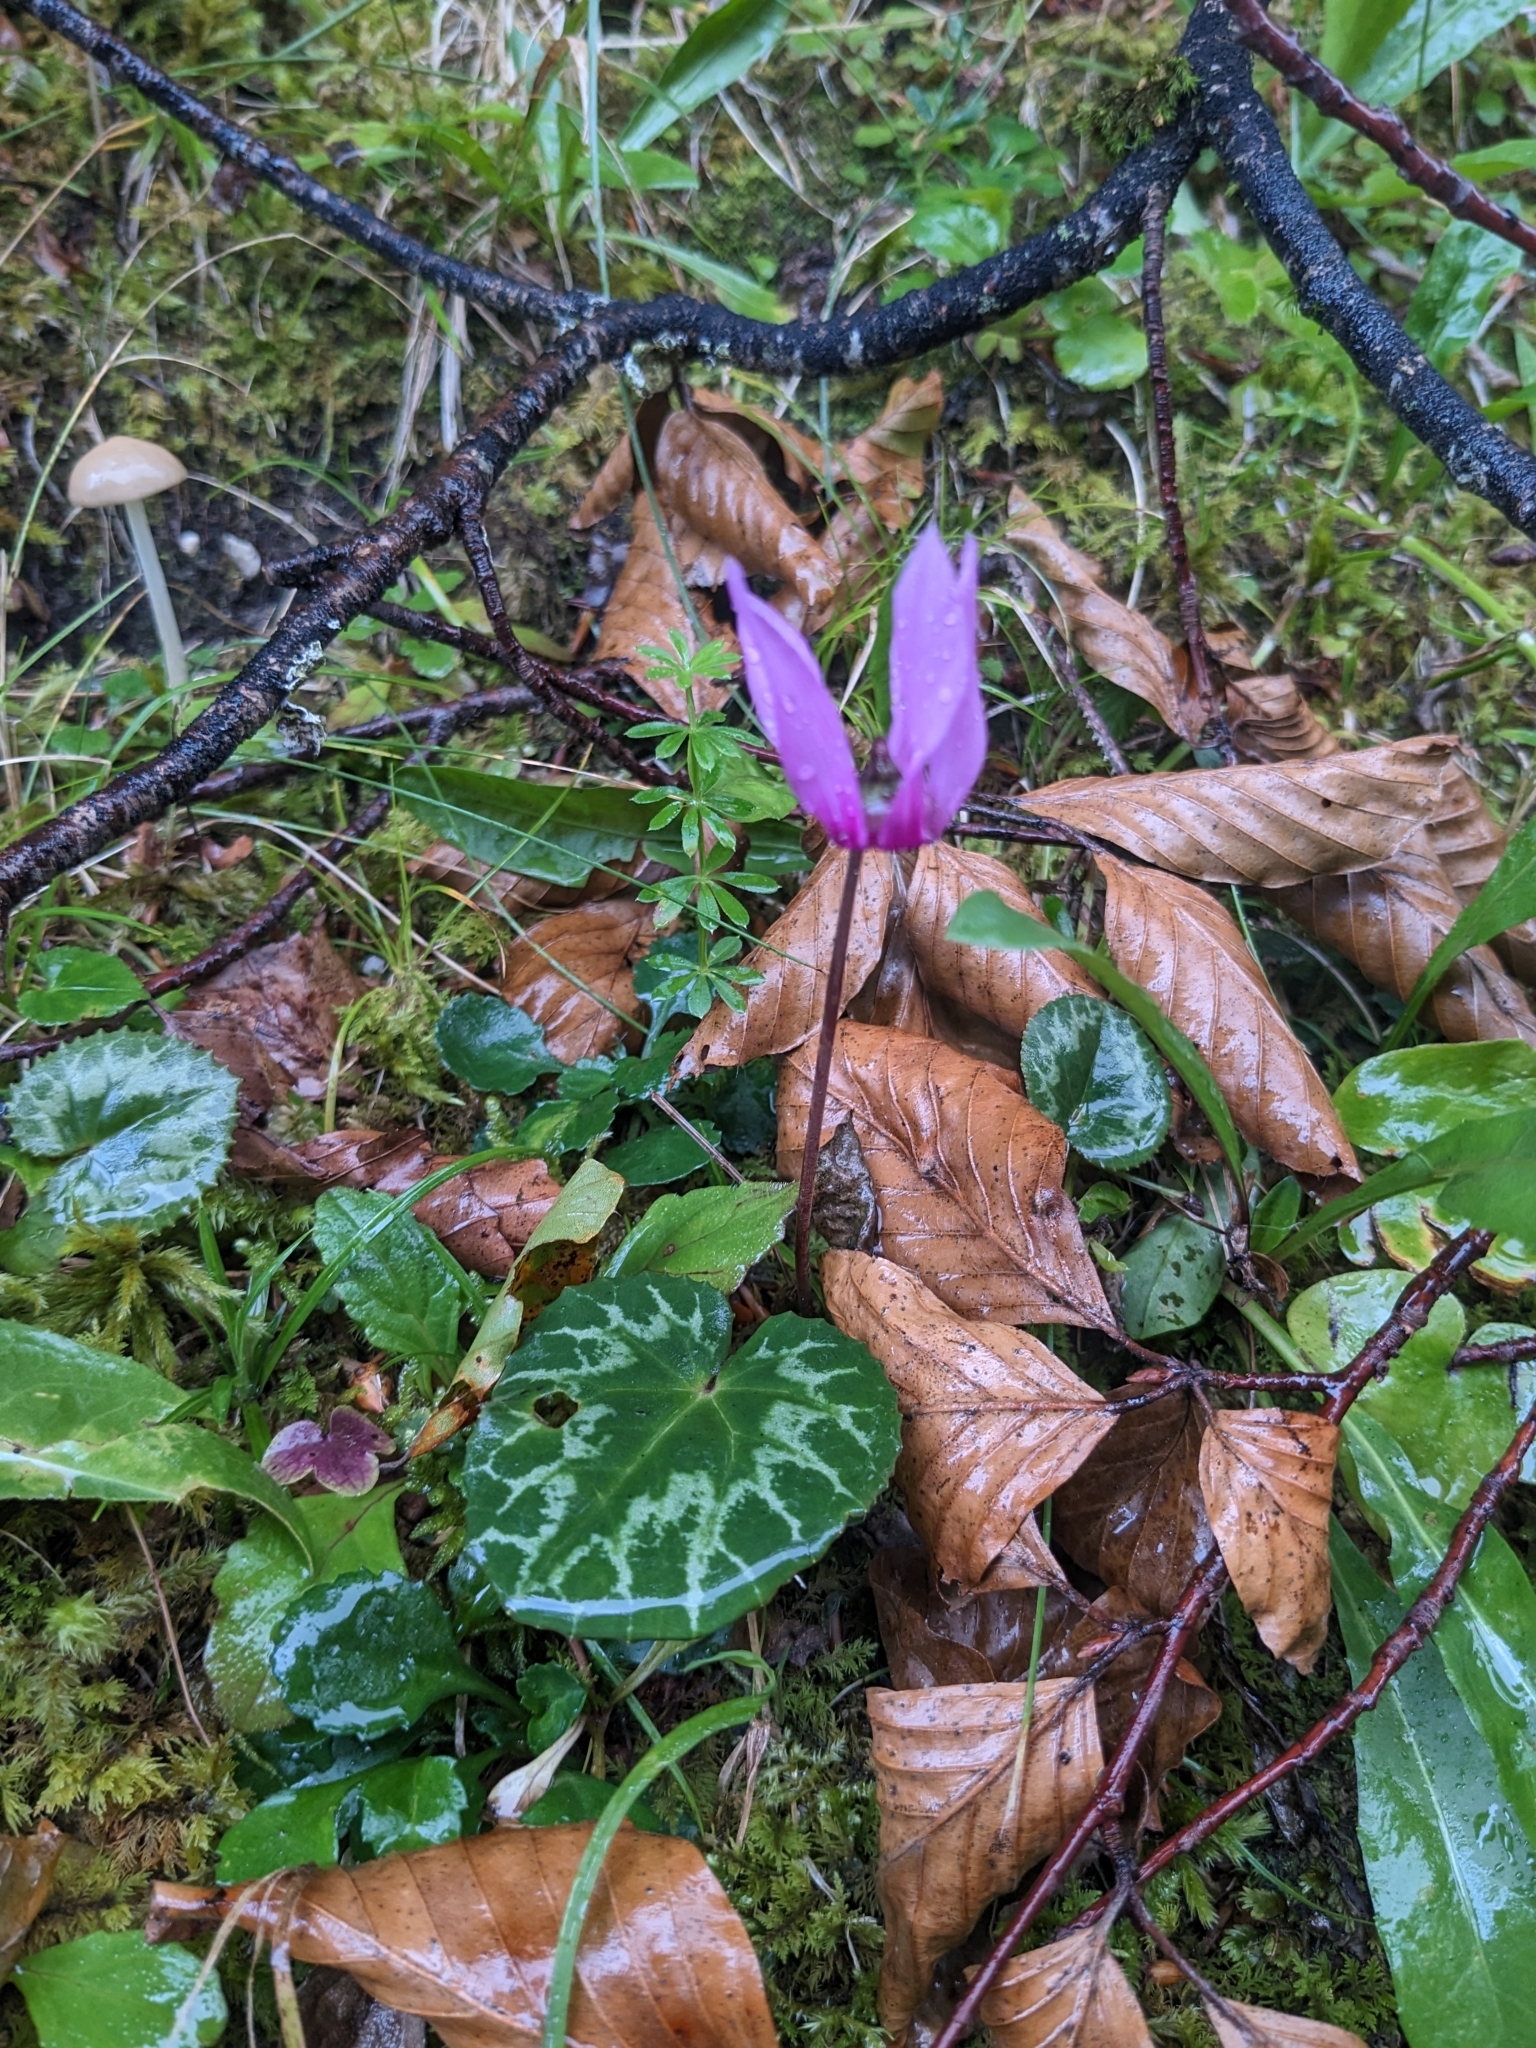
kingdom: Plantae
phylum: Tracheophyta
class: Magnoliopsida
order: Ericales
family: Primulaceae
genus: Cyclamen
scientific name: Cyclamen purpurascens
